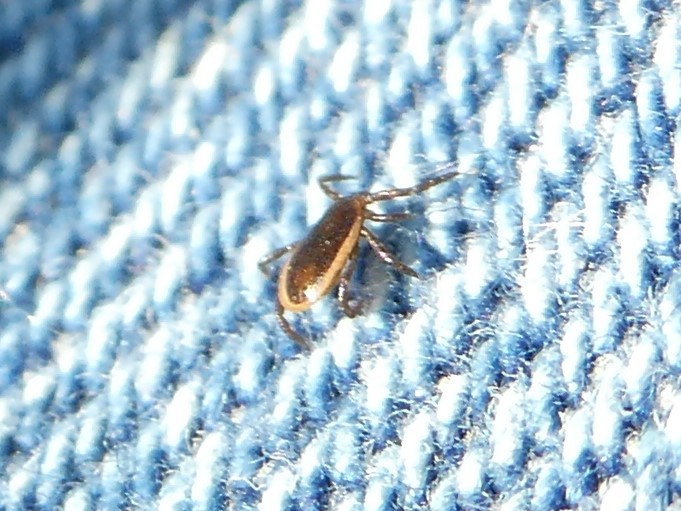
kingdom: Animalia
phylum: Arthropoda
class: Arachnida
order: Ixodida
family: Ixodidae
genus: Ixodes
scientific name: Ixodes scapularis
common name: Black legged tick
